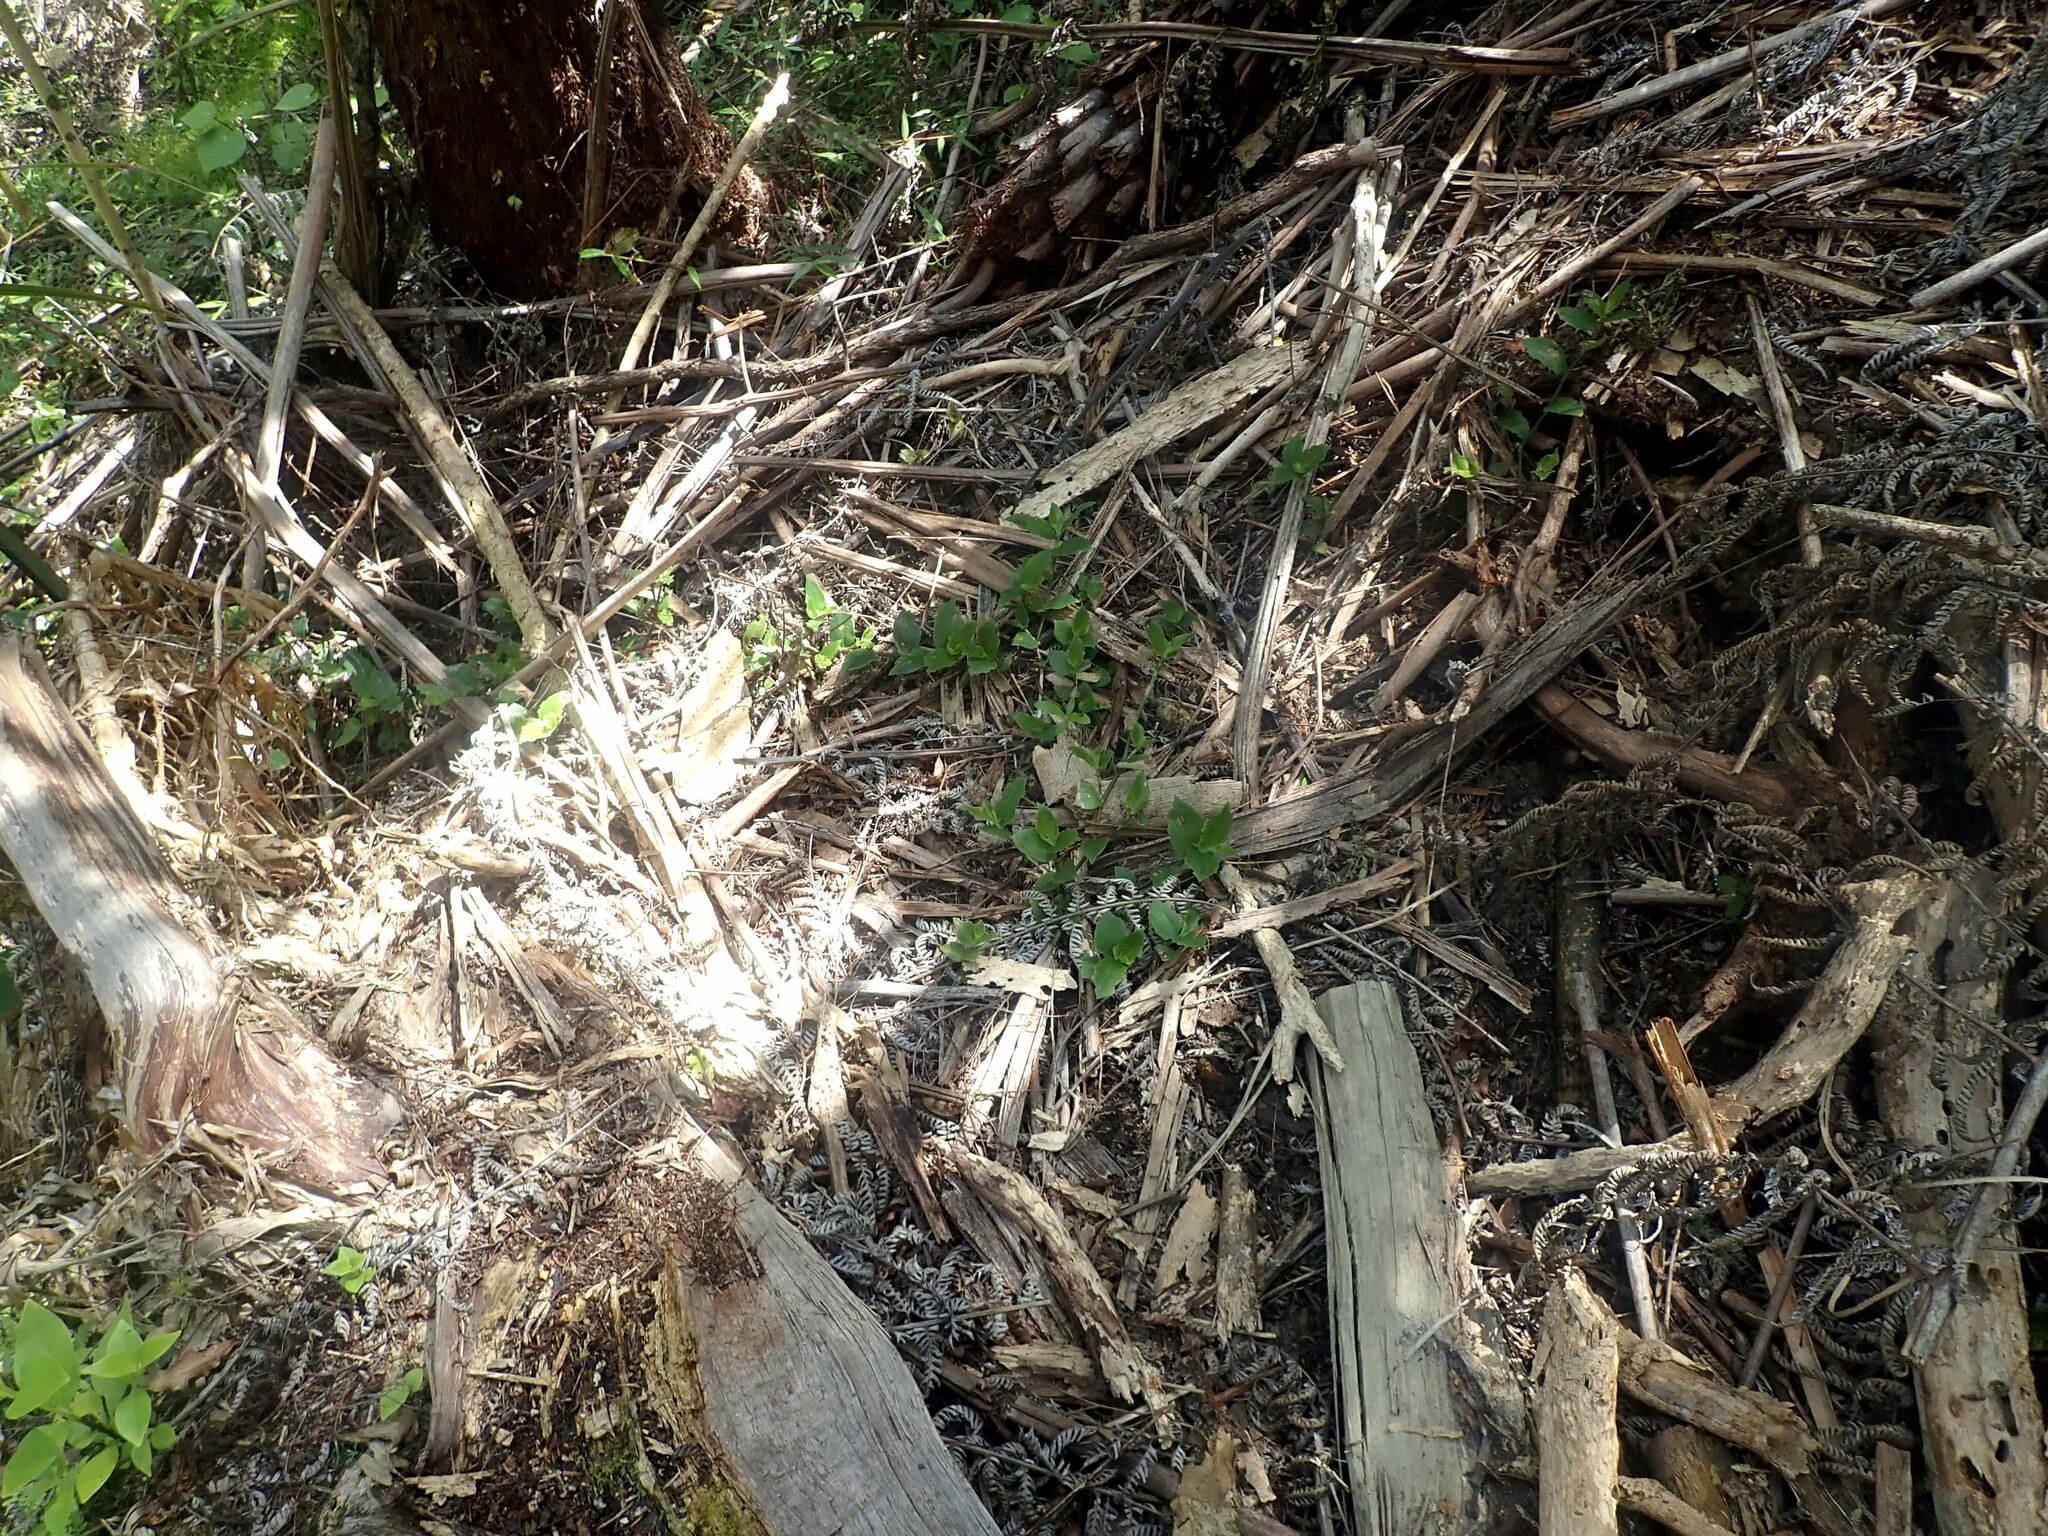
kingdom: Plantae
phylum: Tracheophyta
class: Liliopsida
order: Commelinales
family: Commelinaceae
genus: Tradescantia
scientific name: Tradescantia fluminensis
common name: Wandering-jew
